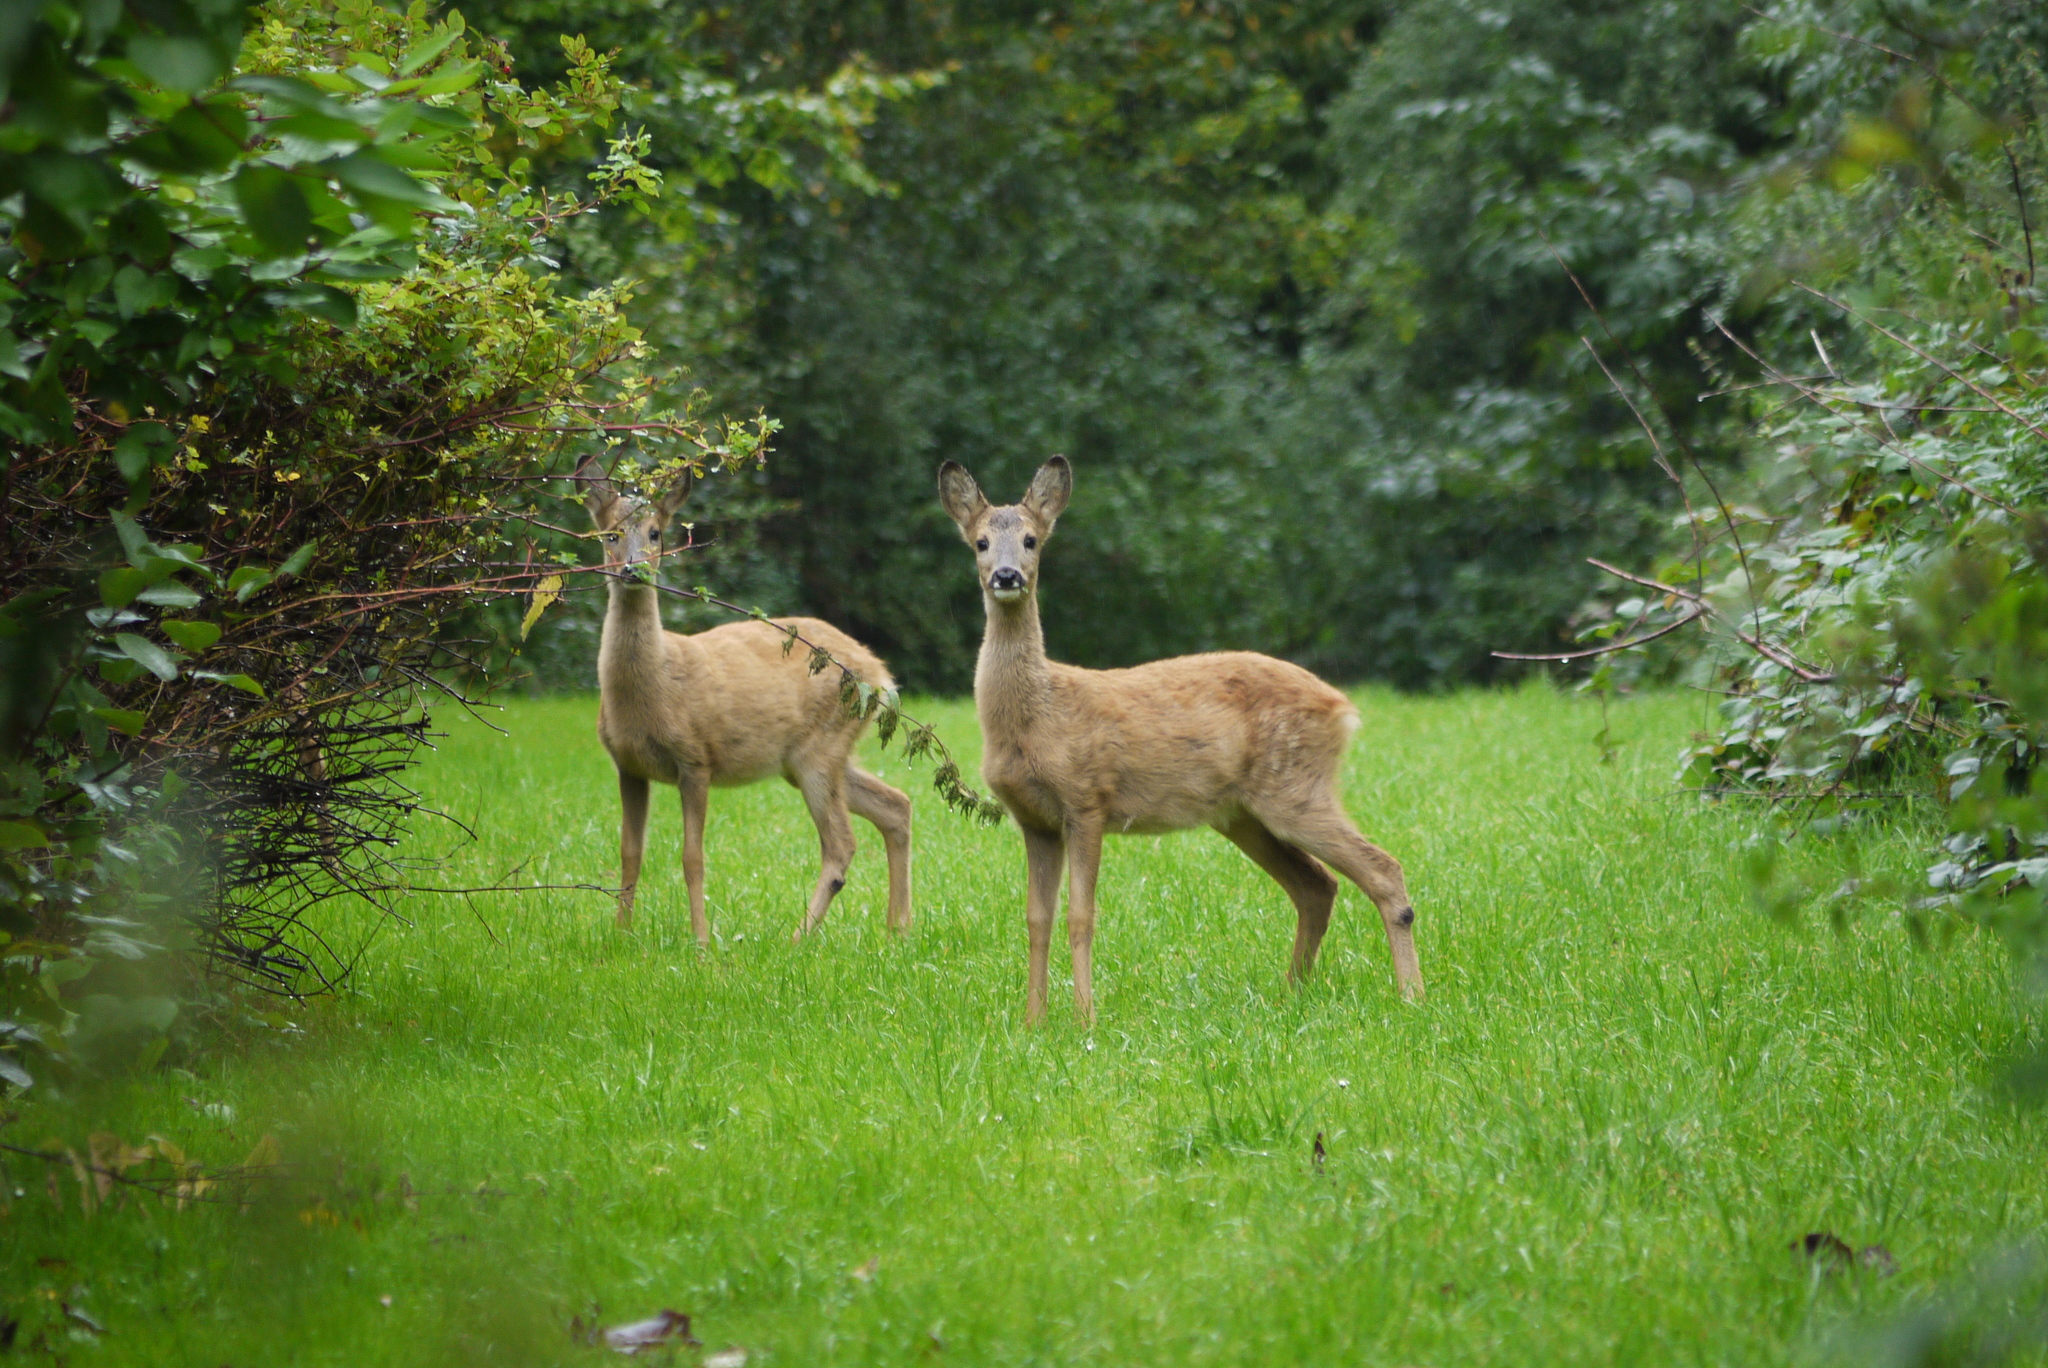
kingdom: Animalia
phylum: Chordata
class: Mammalia
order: Artiodactyla
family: Cervidae
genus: Capreolus
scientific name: Capreolus capreolus
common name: Western roe deer
